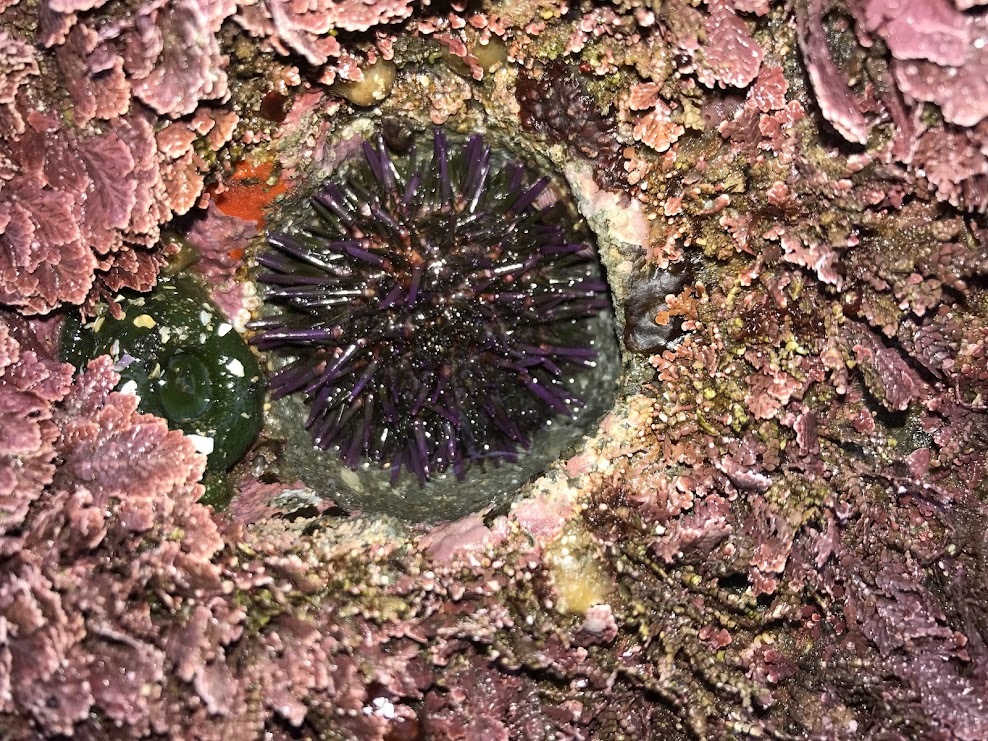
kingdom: Animalia
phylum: Echinodermata
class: Echinoidea
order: Camarodonta
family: Strongylocentrotidae
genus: Strongylocentrotus
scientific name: Strongylocentrotus purpuratus
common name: Purple sea urchin
